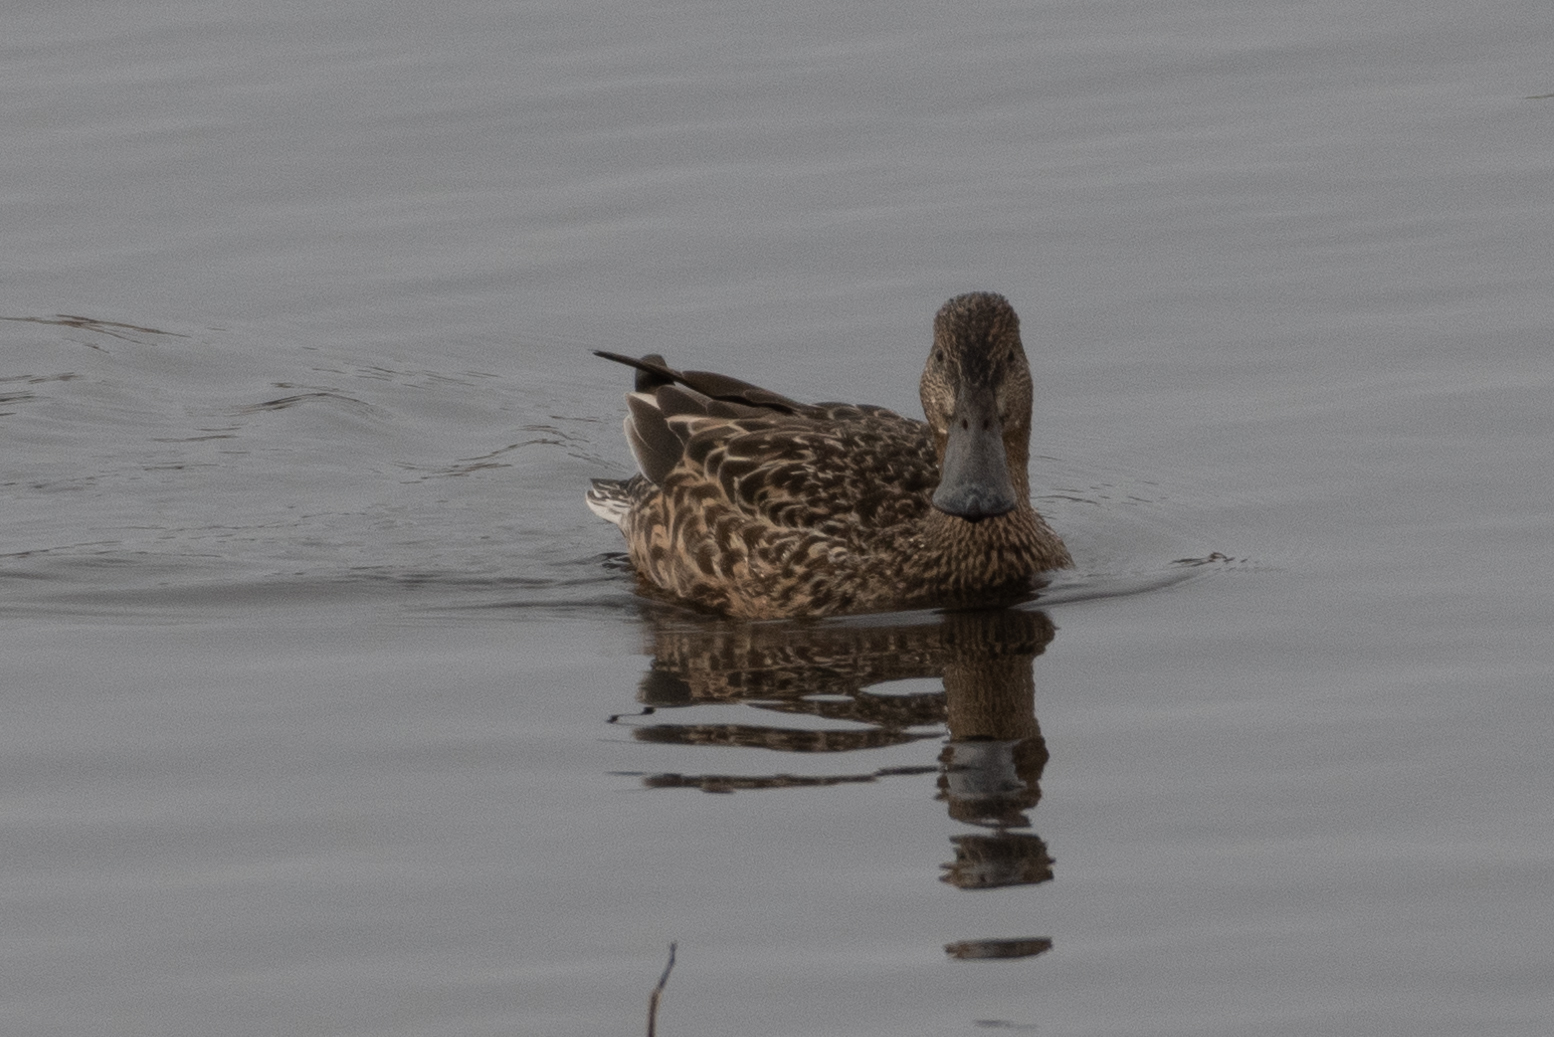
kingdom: Animalia
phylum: Chordata
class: Aves
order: Anseriformes
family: Anatidae
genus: Spatula
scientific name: Spatula clypeata
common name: Northern shoveler
